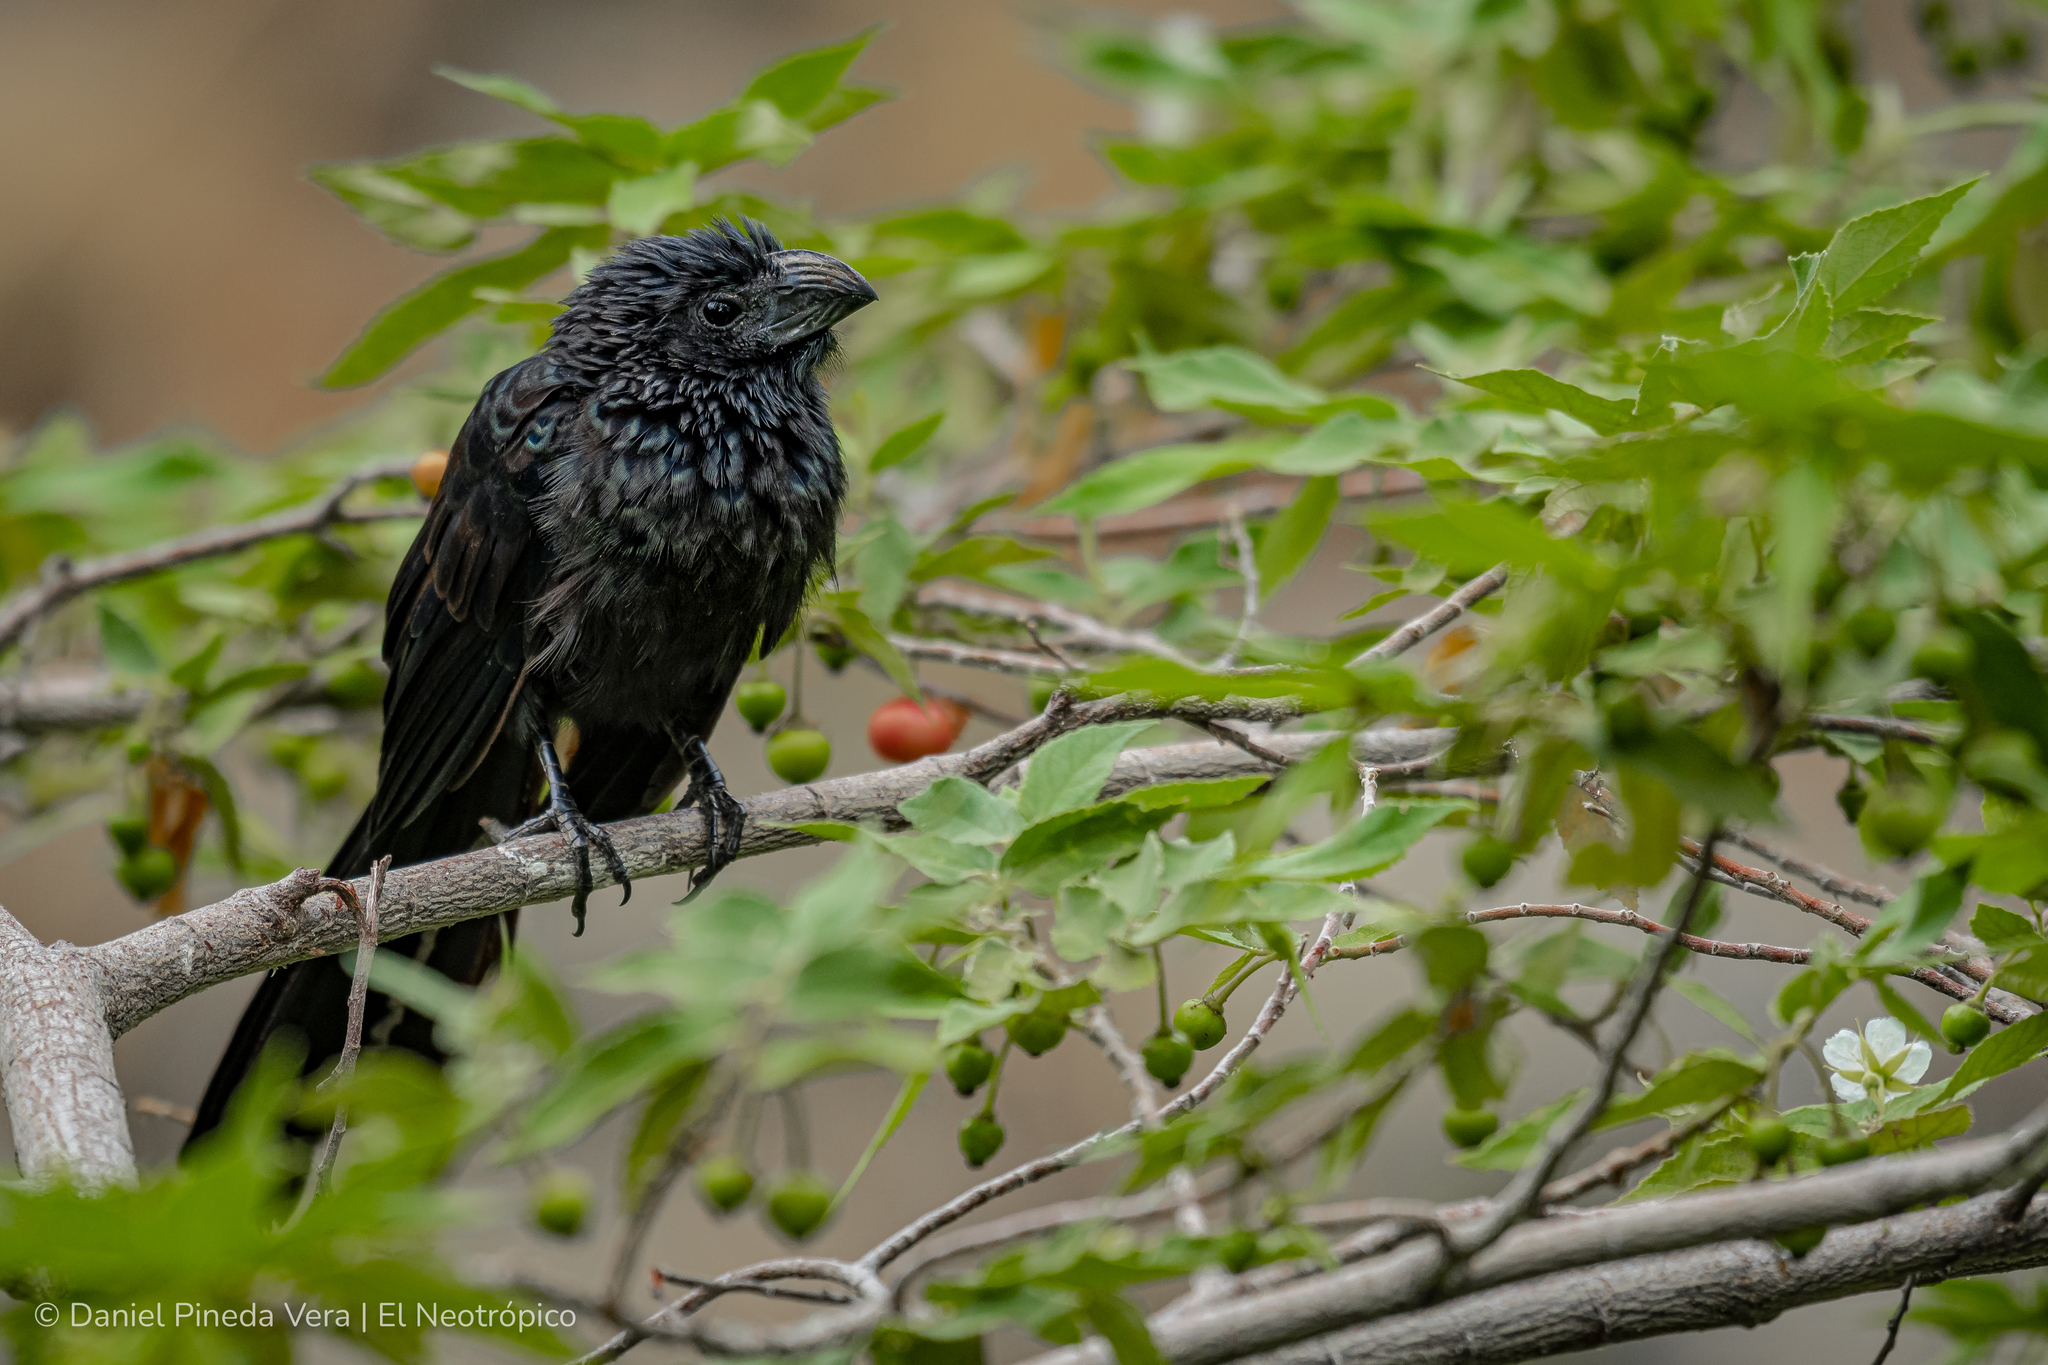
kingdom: Animalia
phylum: Chordata
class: Aves
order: Cuculiformes
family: Cuculidae
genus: Crotophaga
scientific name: Crotophaga sulcirostris
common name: Groove-billed ani
